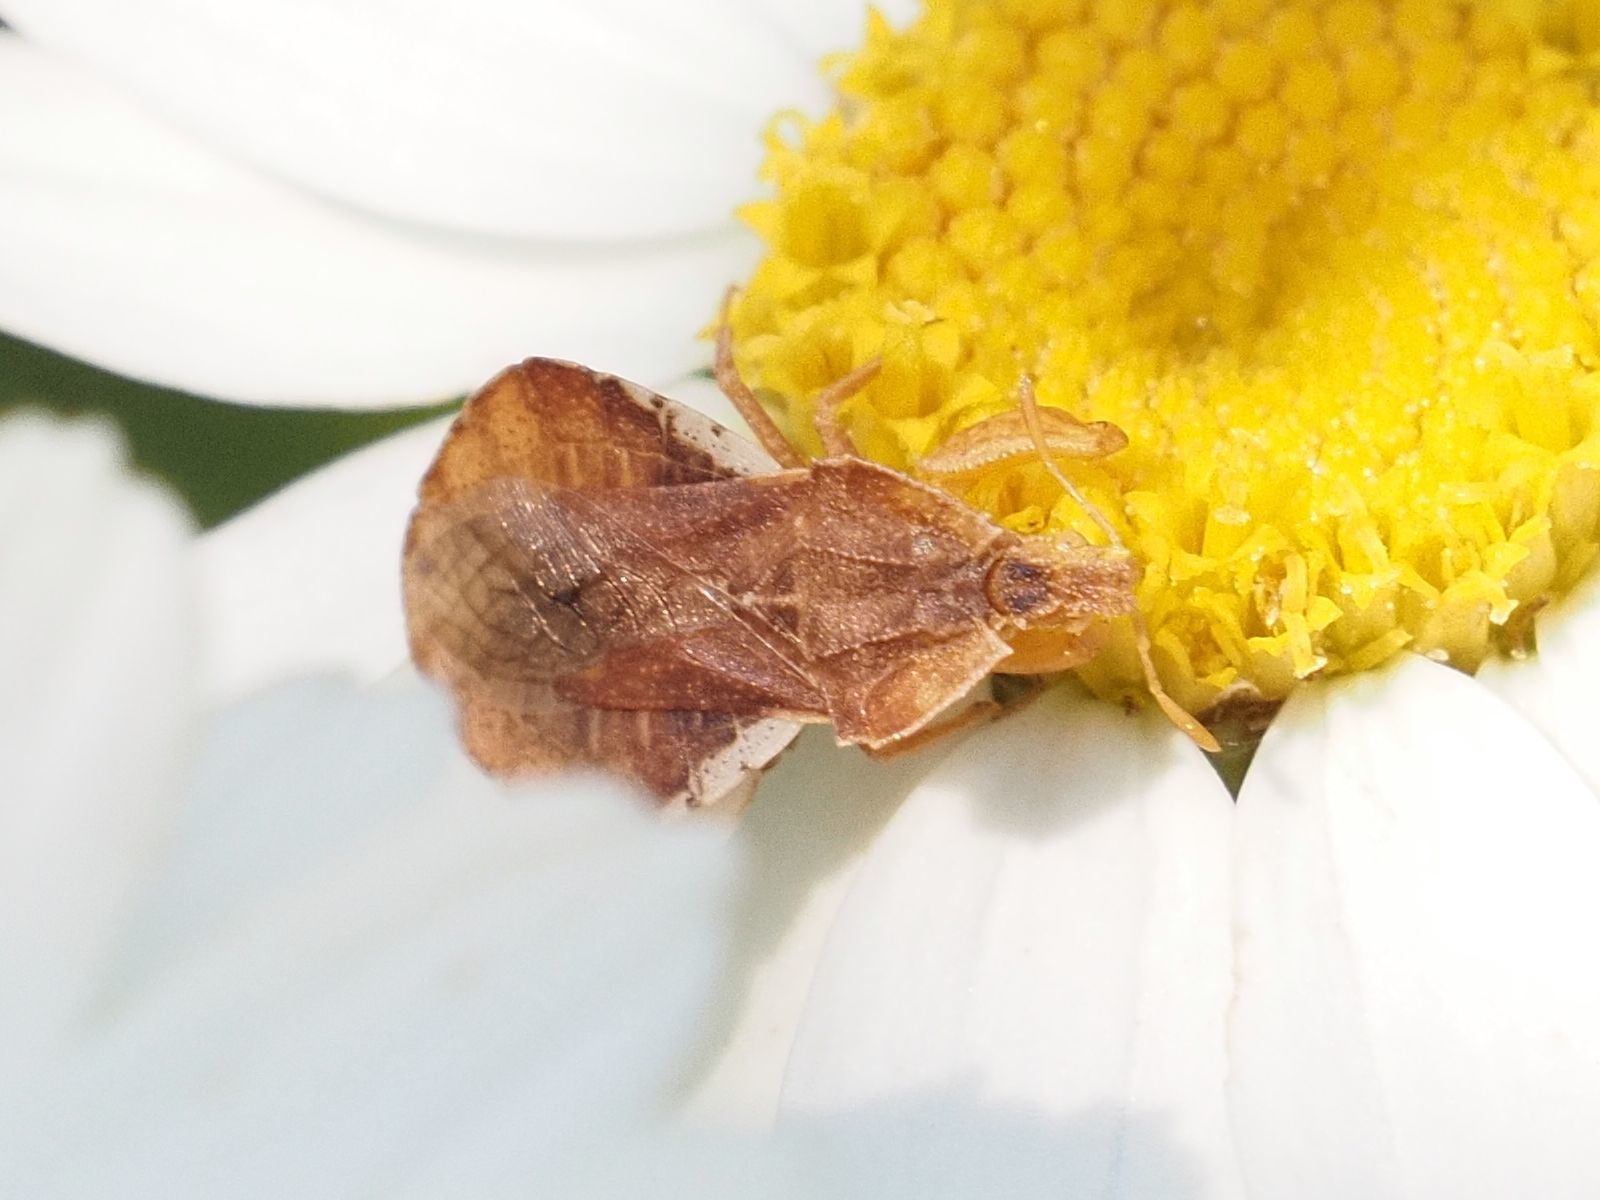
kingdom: Animalia
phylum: Arthropoda
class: Insecta
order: Hemiptera
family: Reduviidae
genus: Phymata
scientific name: Phymata crassipes
